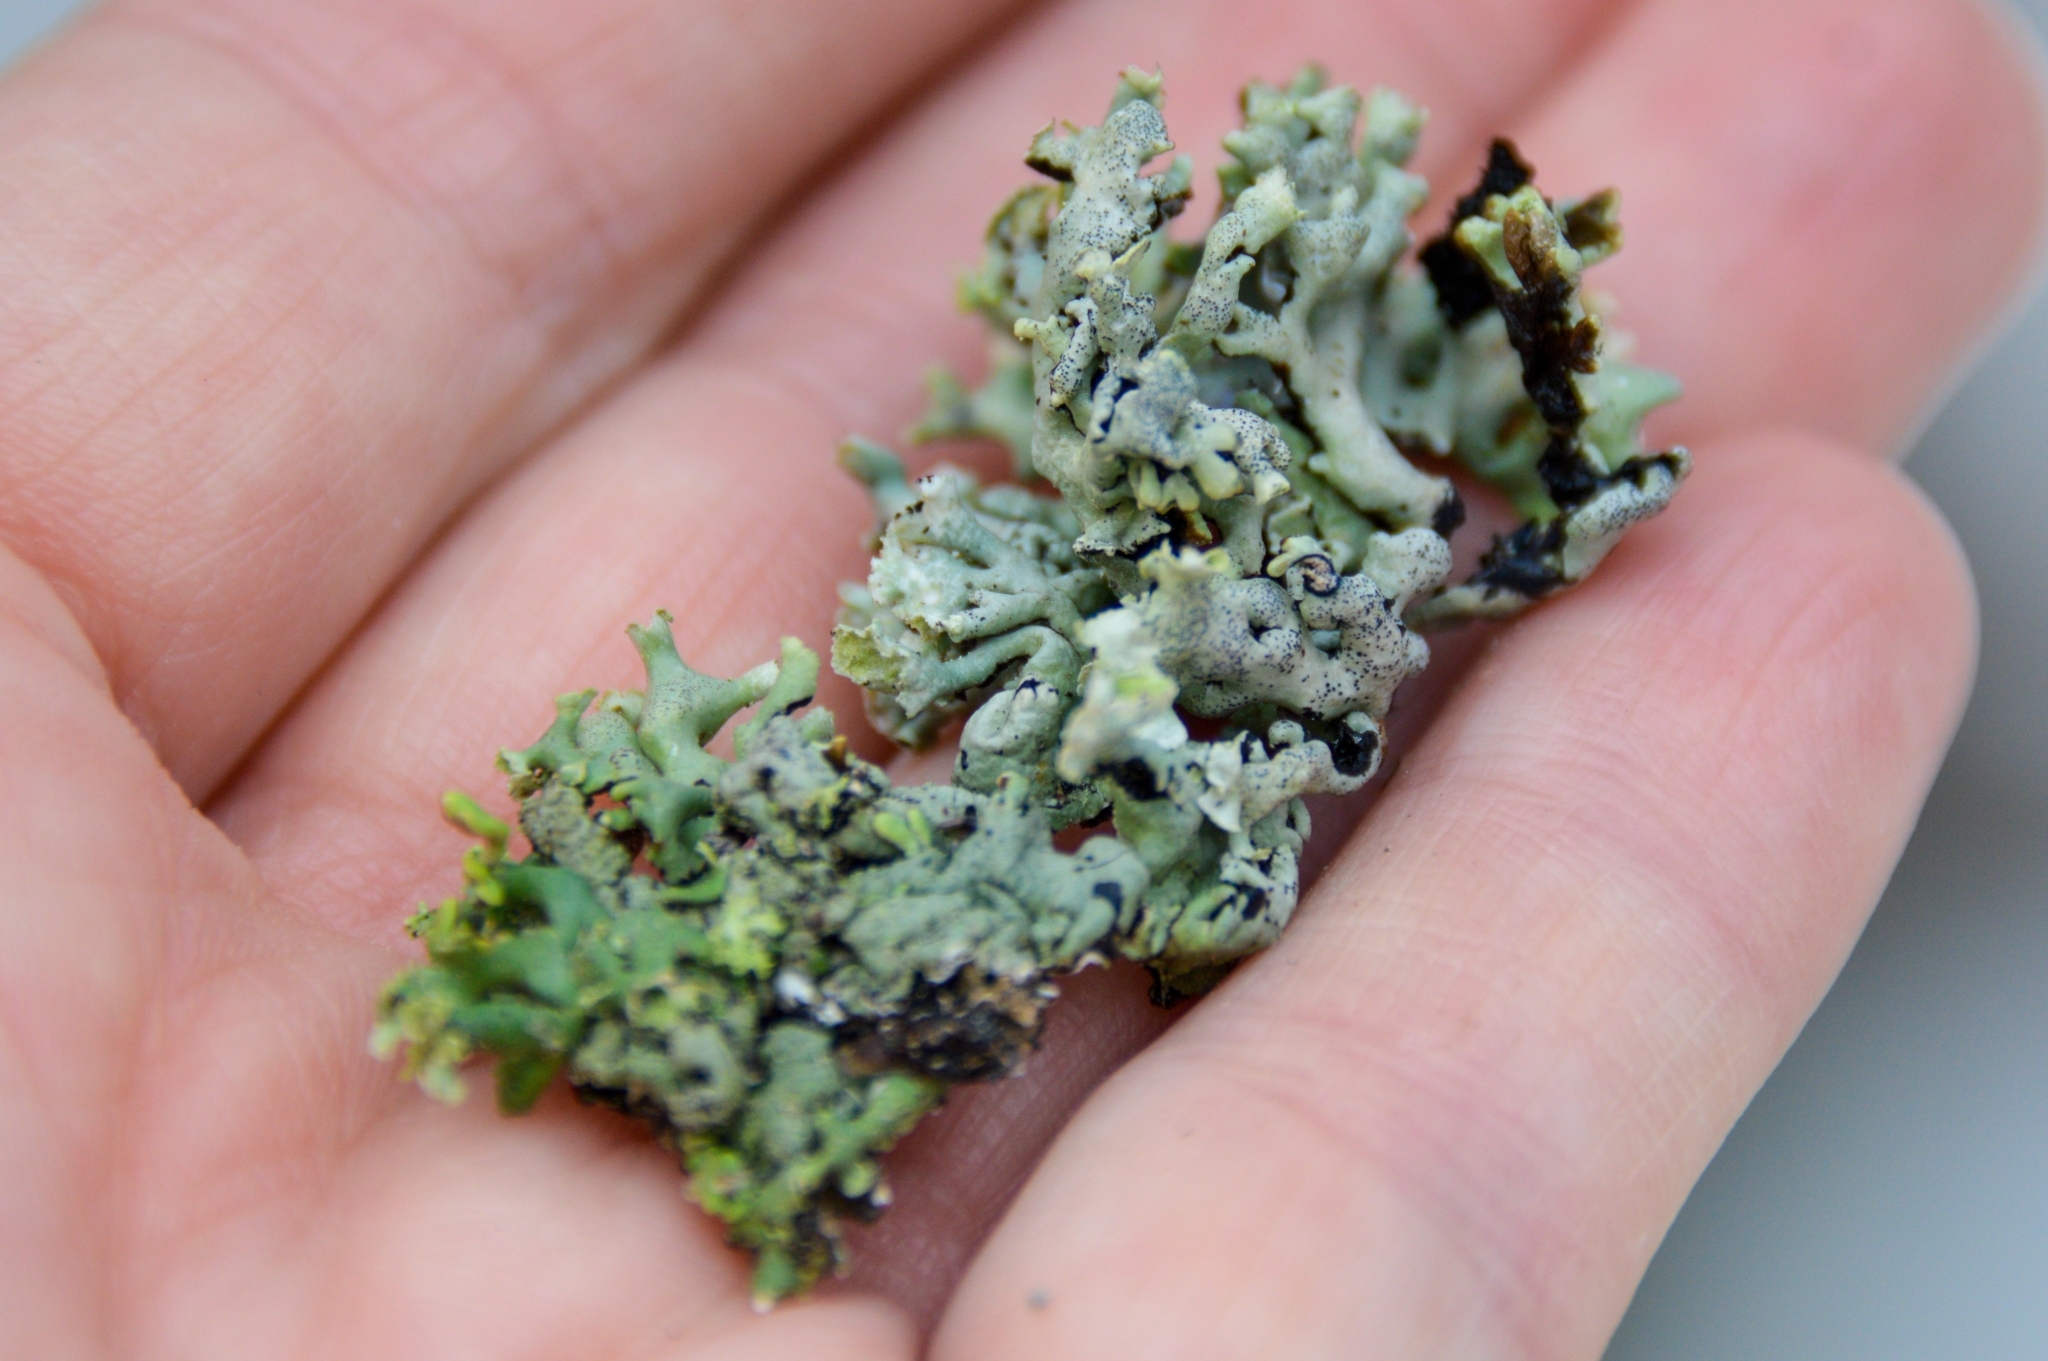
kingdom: Fungi
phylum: Ascomycota
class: Lecanoromycetes
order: Lecanorales
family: Parmeliaceae
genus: Hypogymnia
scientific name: Hypogymnia physodes
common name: Dark crottle
